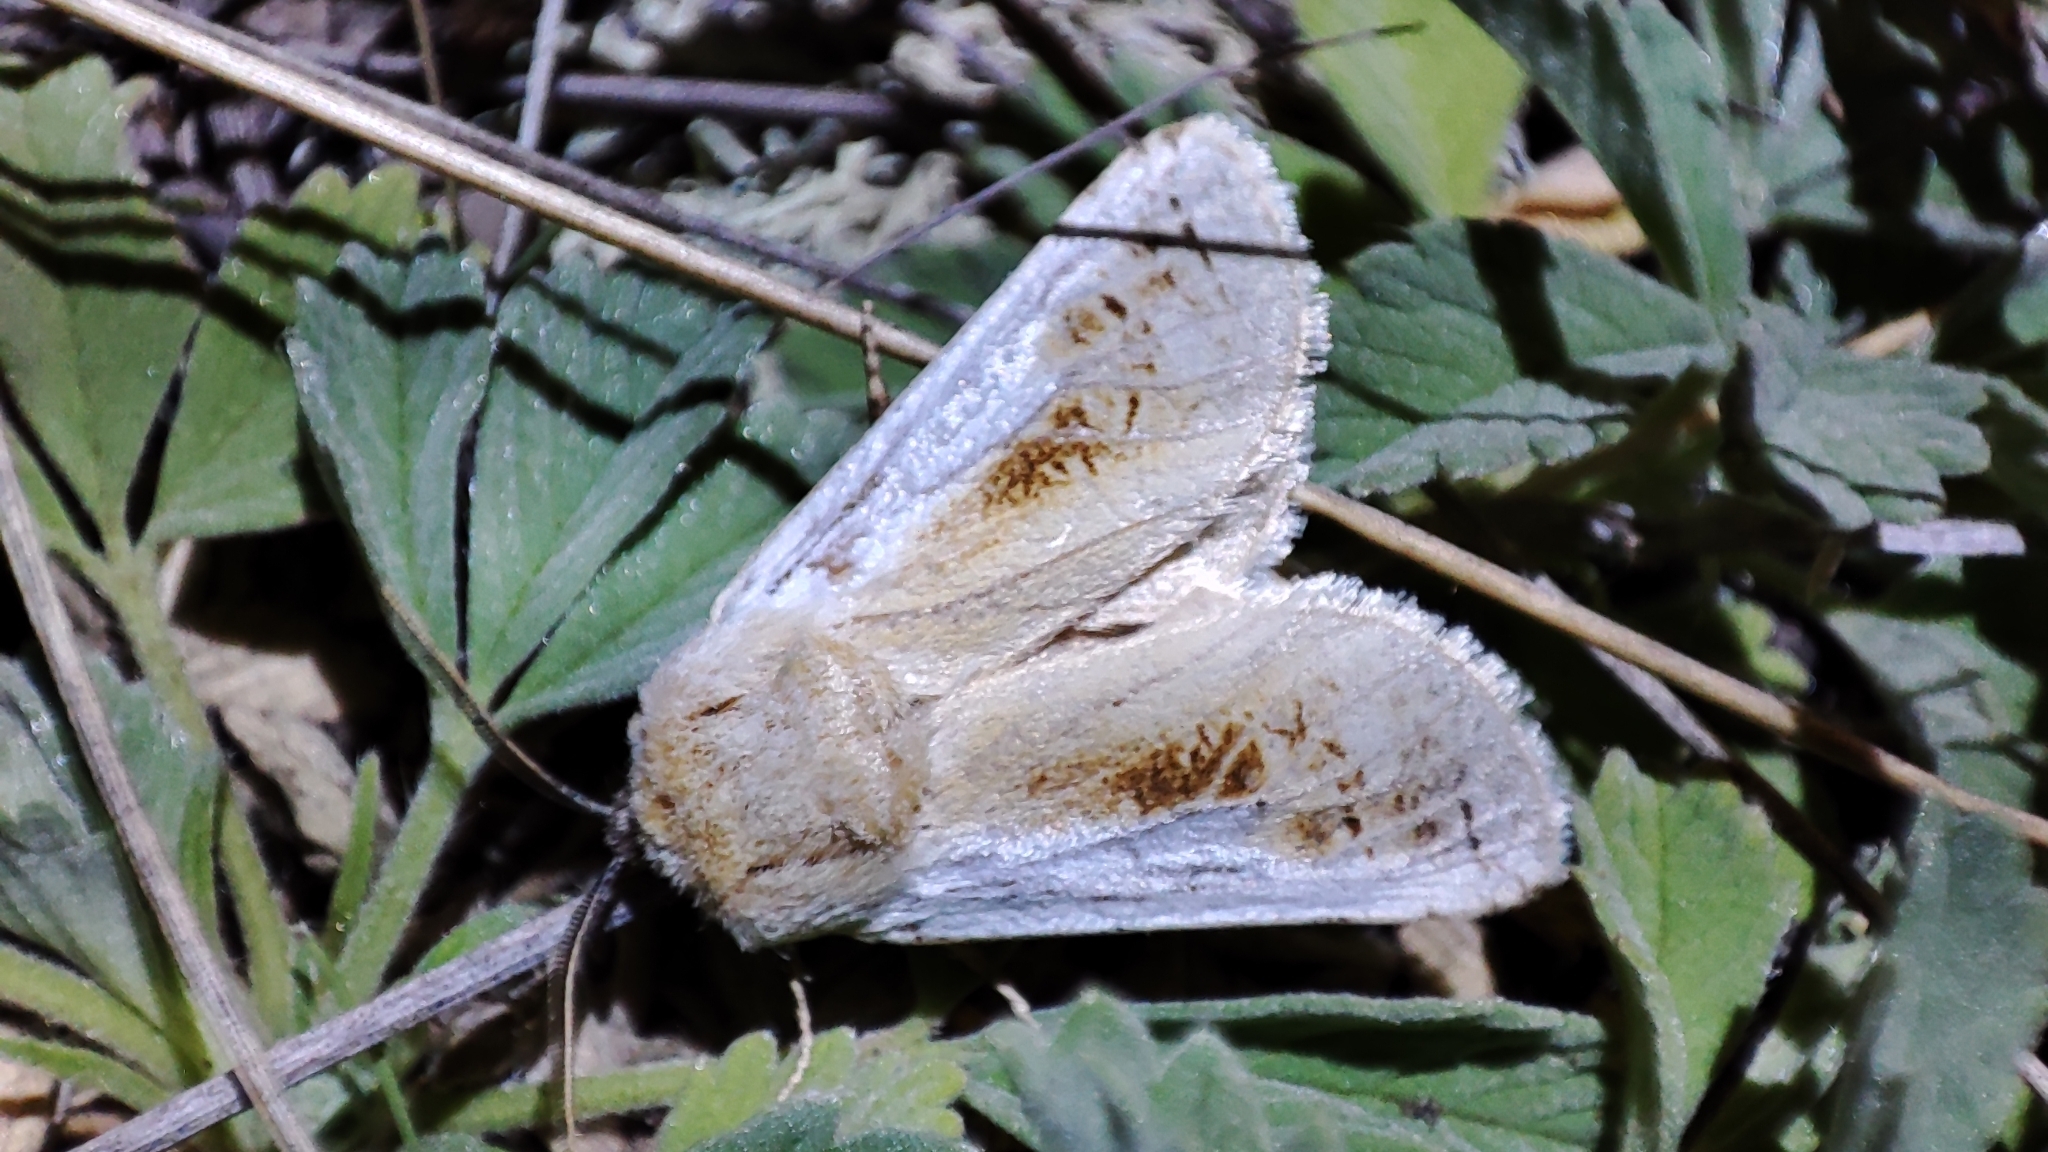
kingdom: Animalia
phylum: Arthropoda
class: Insecta
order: Lepidoptera
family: Cossidae
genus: Eogystia
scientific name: Eogystia sibirica
